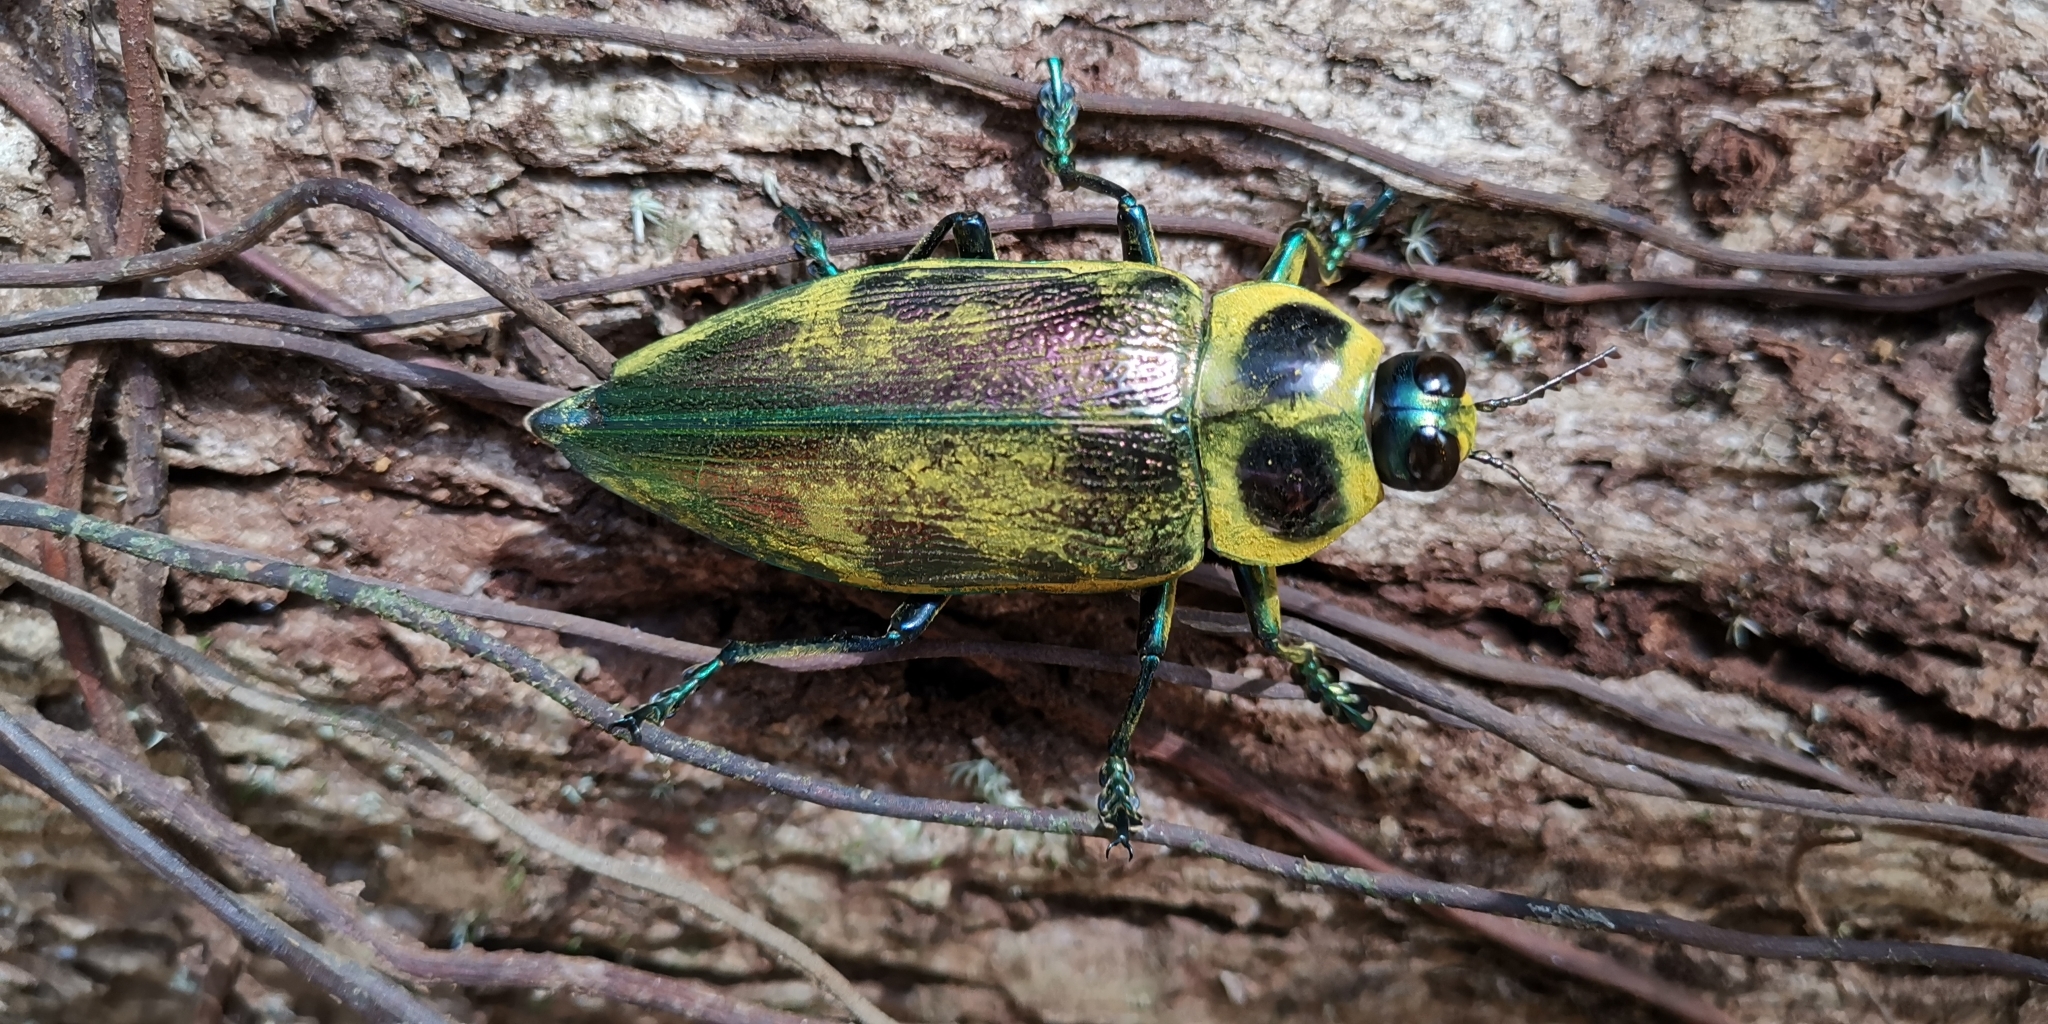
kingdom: Animalia
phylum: Arthropoda
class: Insecta
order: Coleoptera
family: Buprestidae
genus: Euchroma
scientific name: Euchroma giganteum
